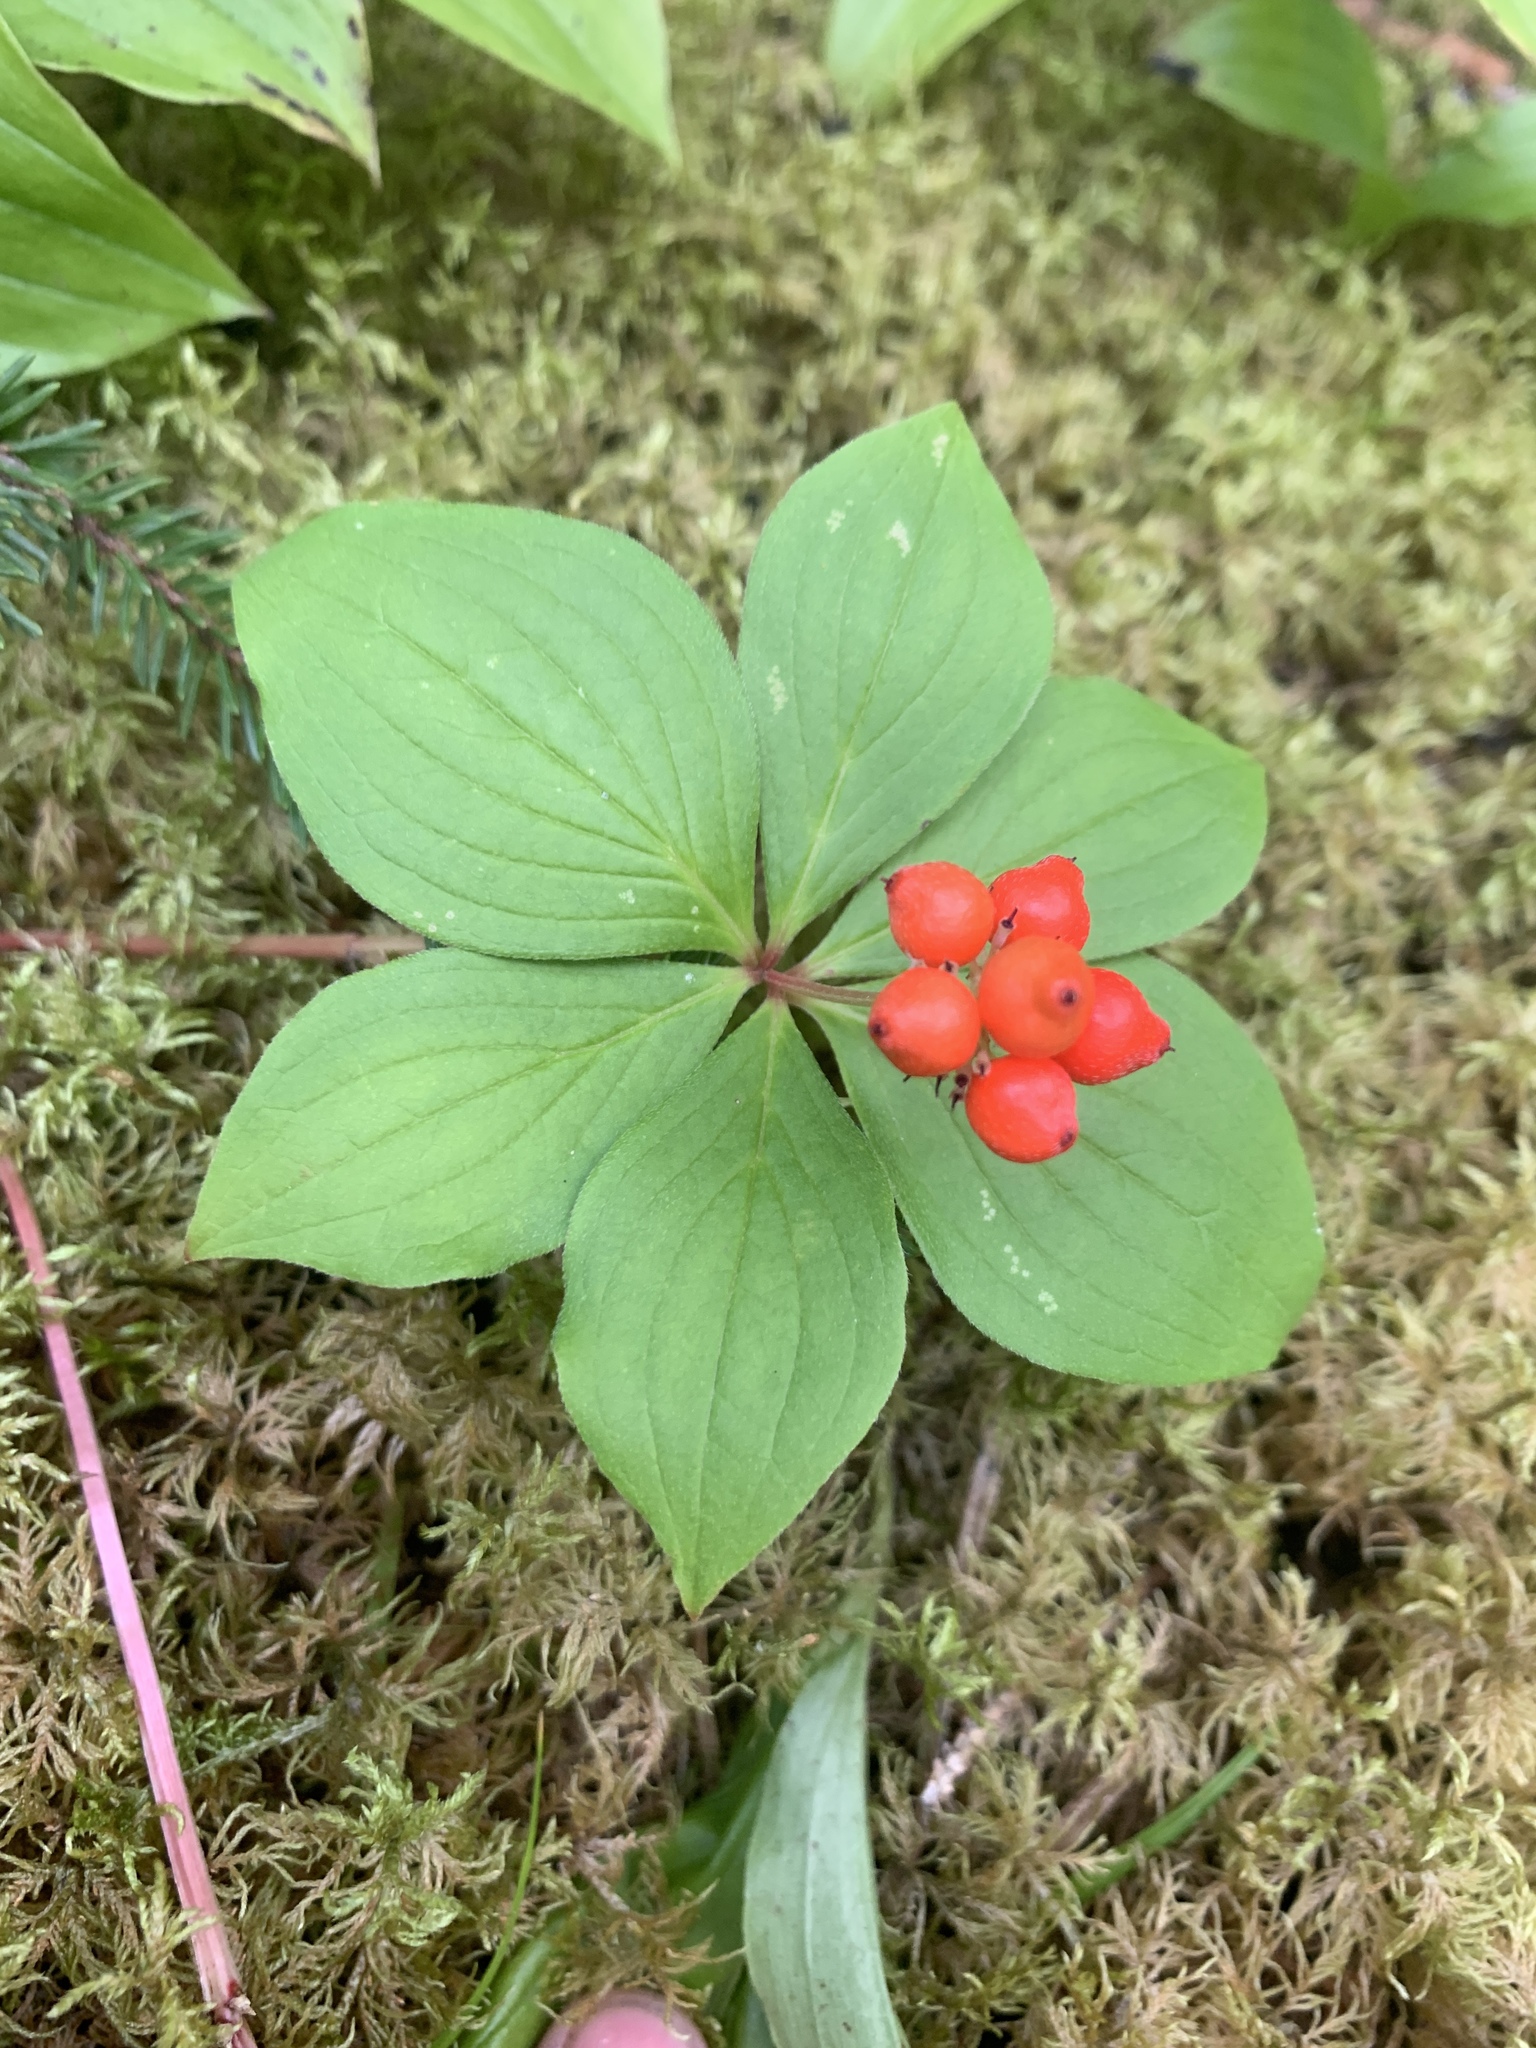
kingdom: Plantae
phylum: Tracheophyta
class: Magnoliopsida
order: Cornales
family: Cornaceae
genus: Cornus
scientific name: Cornus canadensis
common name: Creeping dogwood
